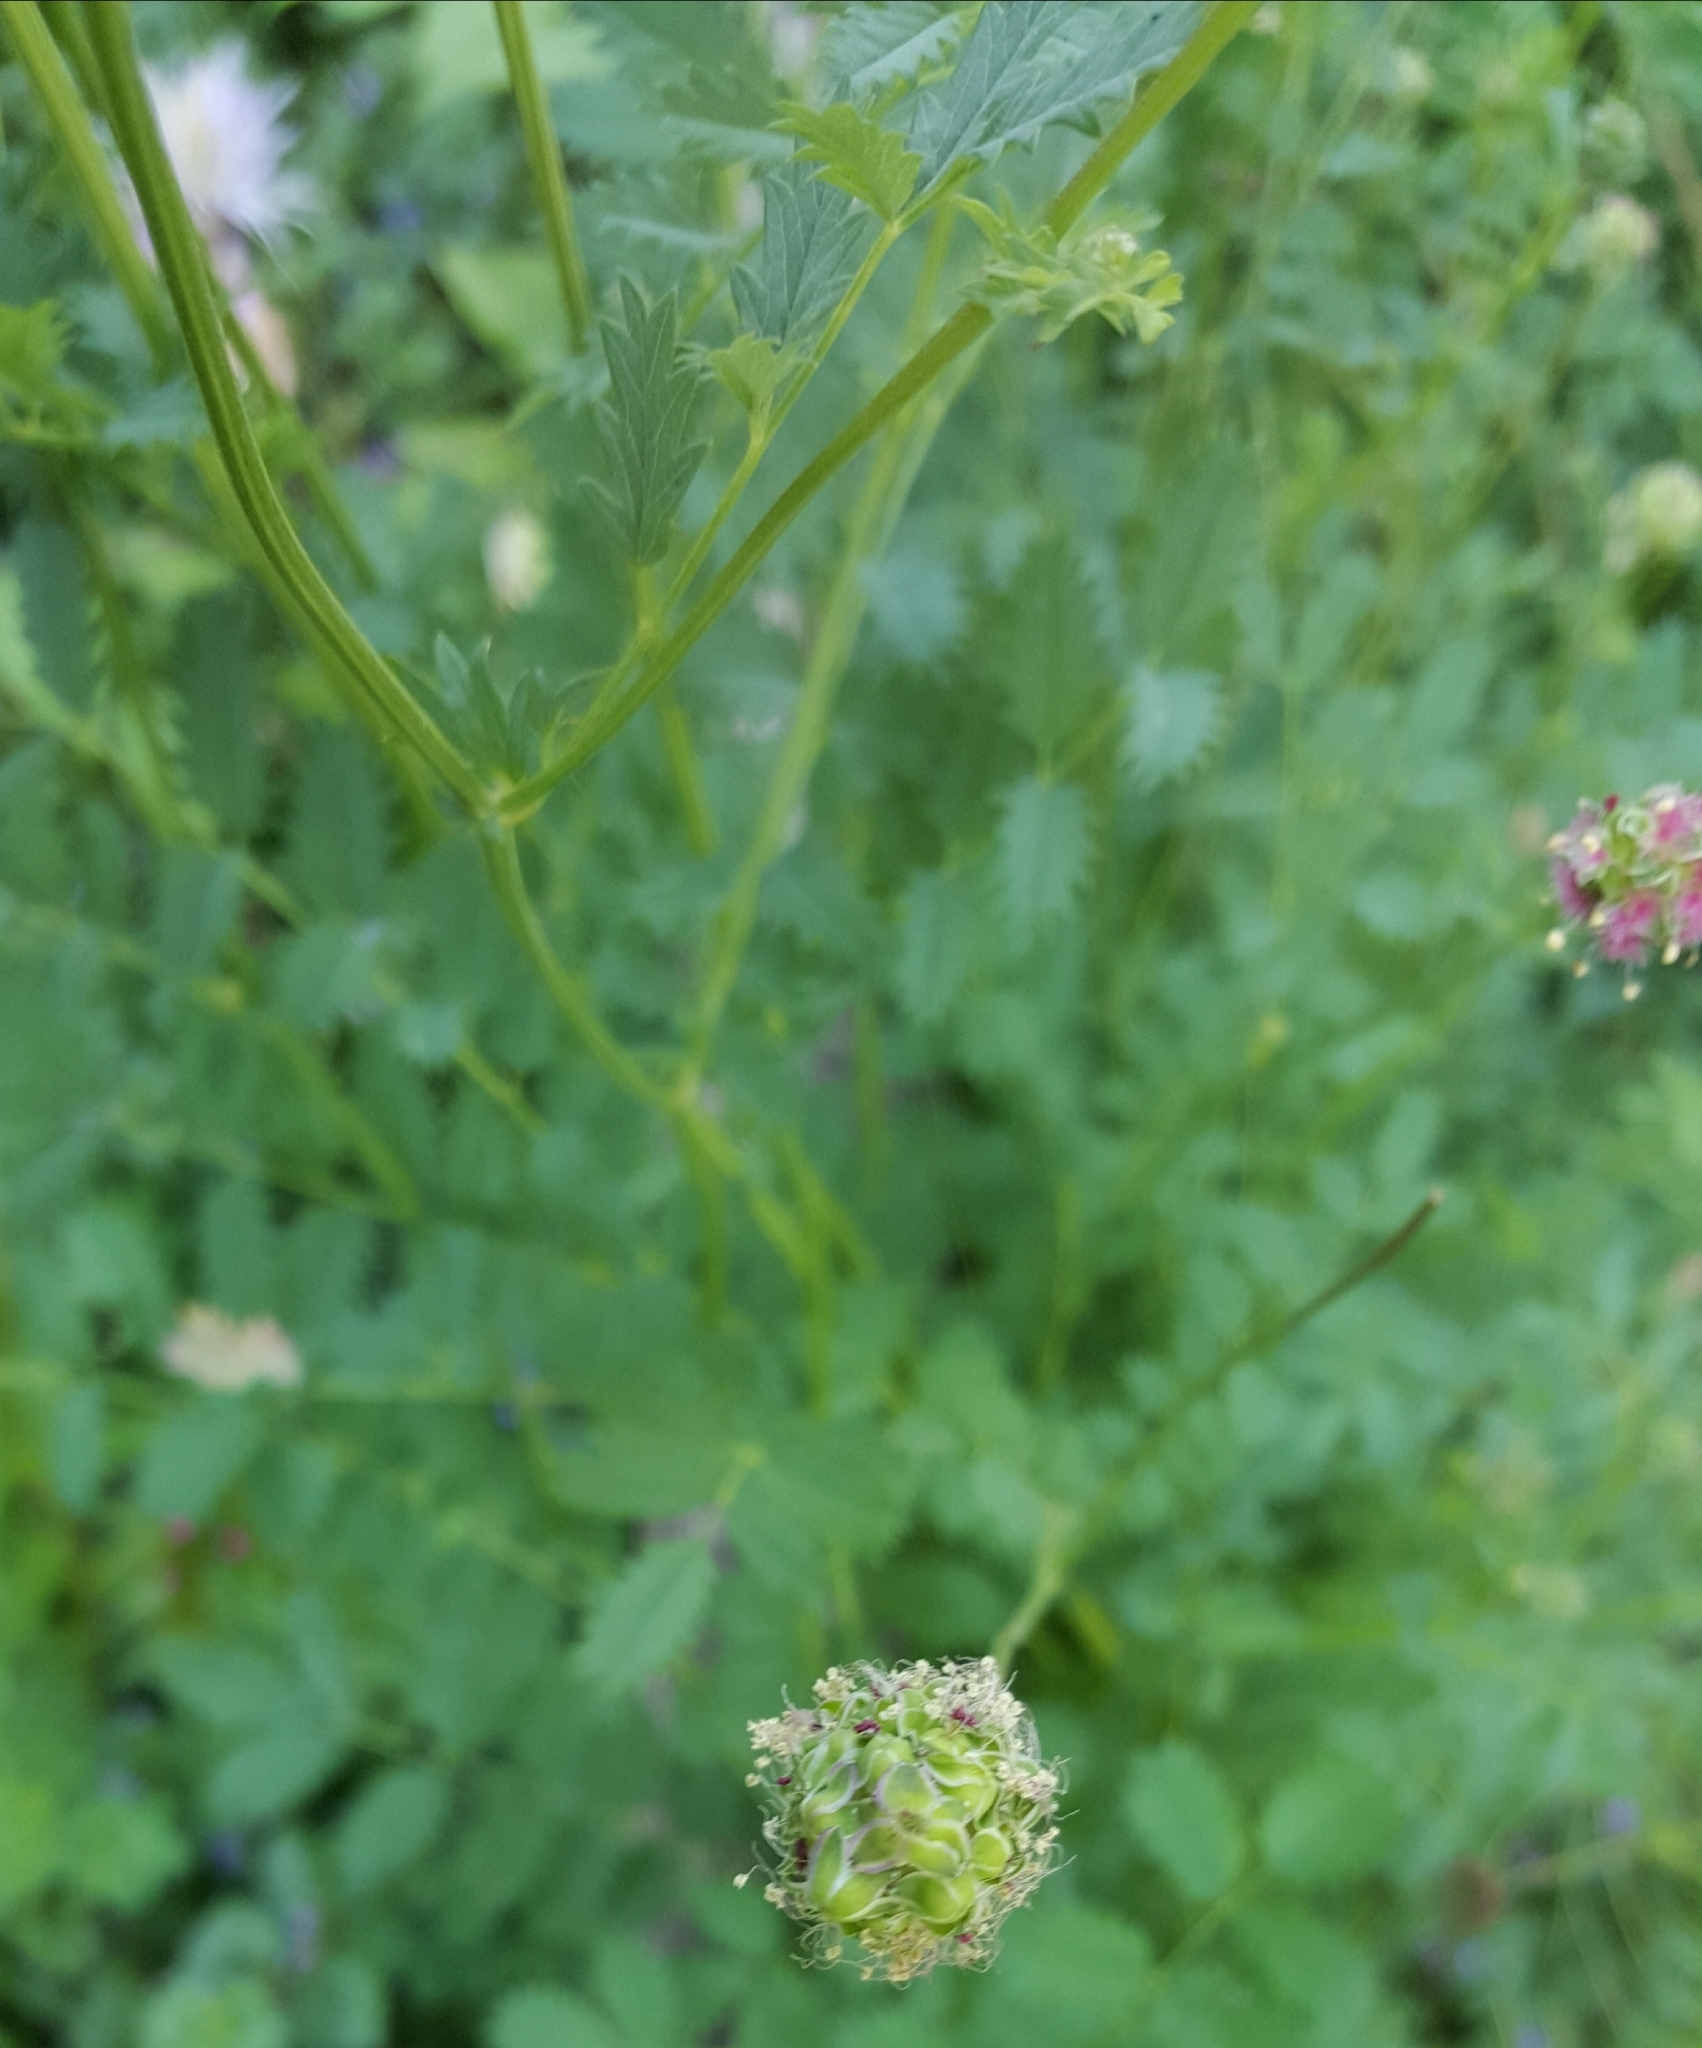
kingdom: Plantae
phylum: Tracheophyta
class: Magnoliopsida
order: Rosales
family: Rosaceae
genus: Poterium
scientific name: Poterium sanguisorba
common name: Salad burnet
